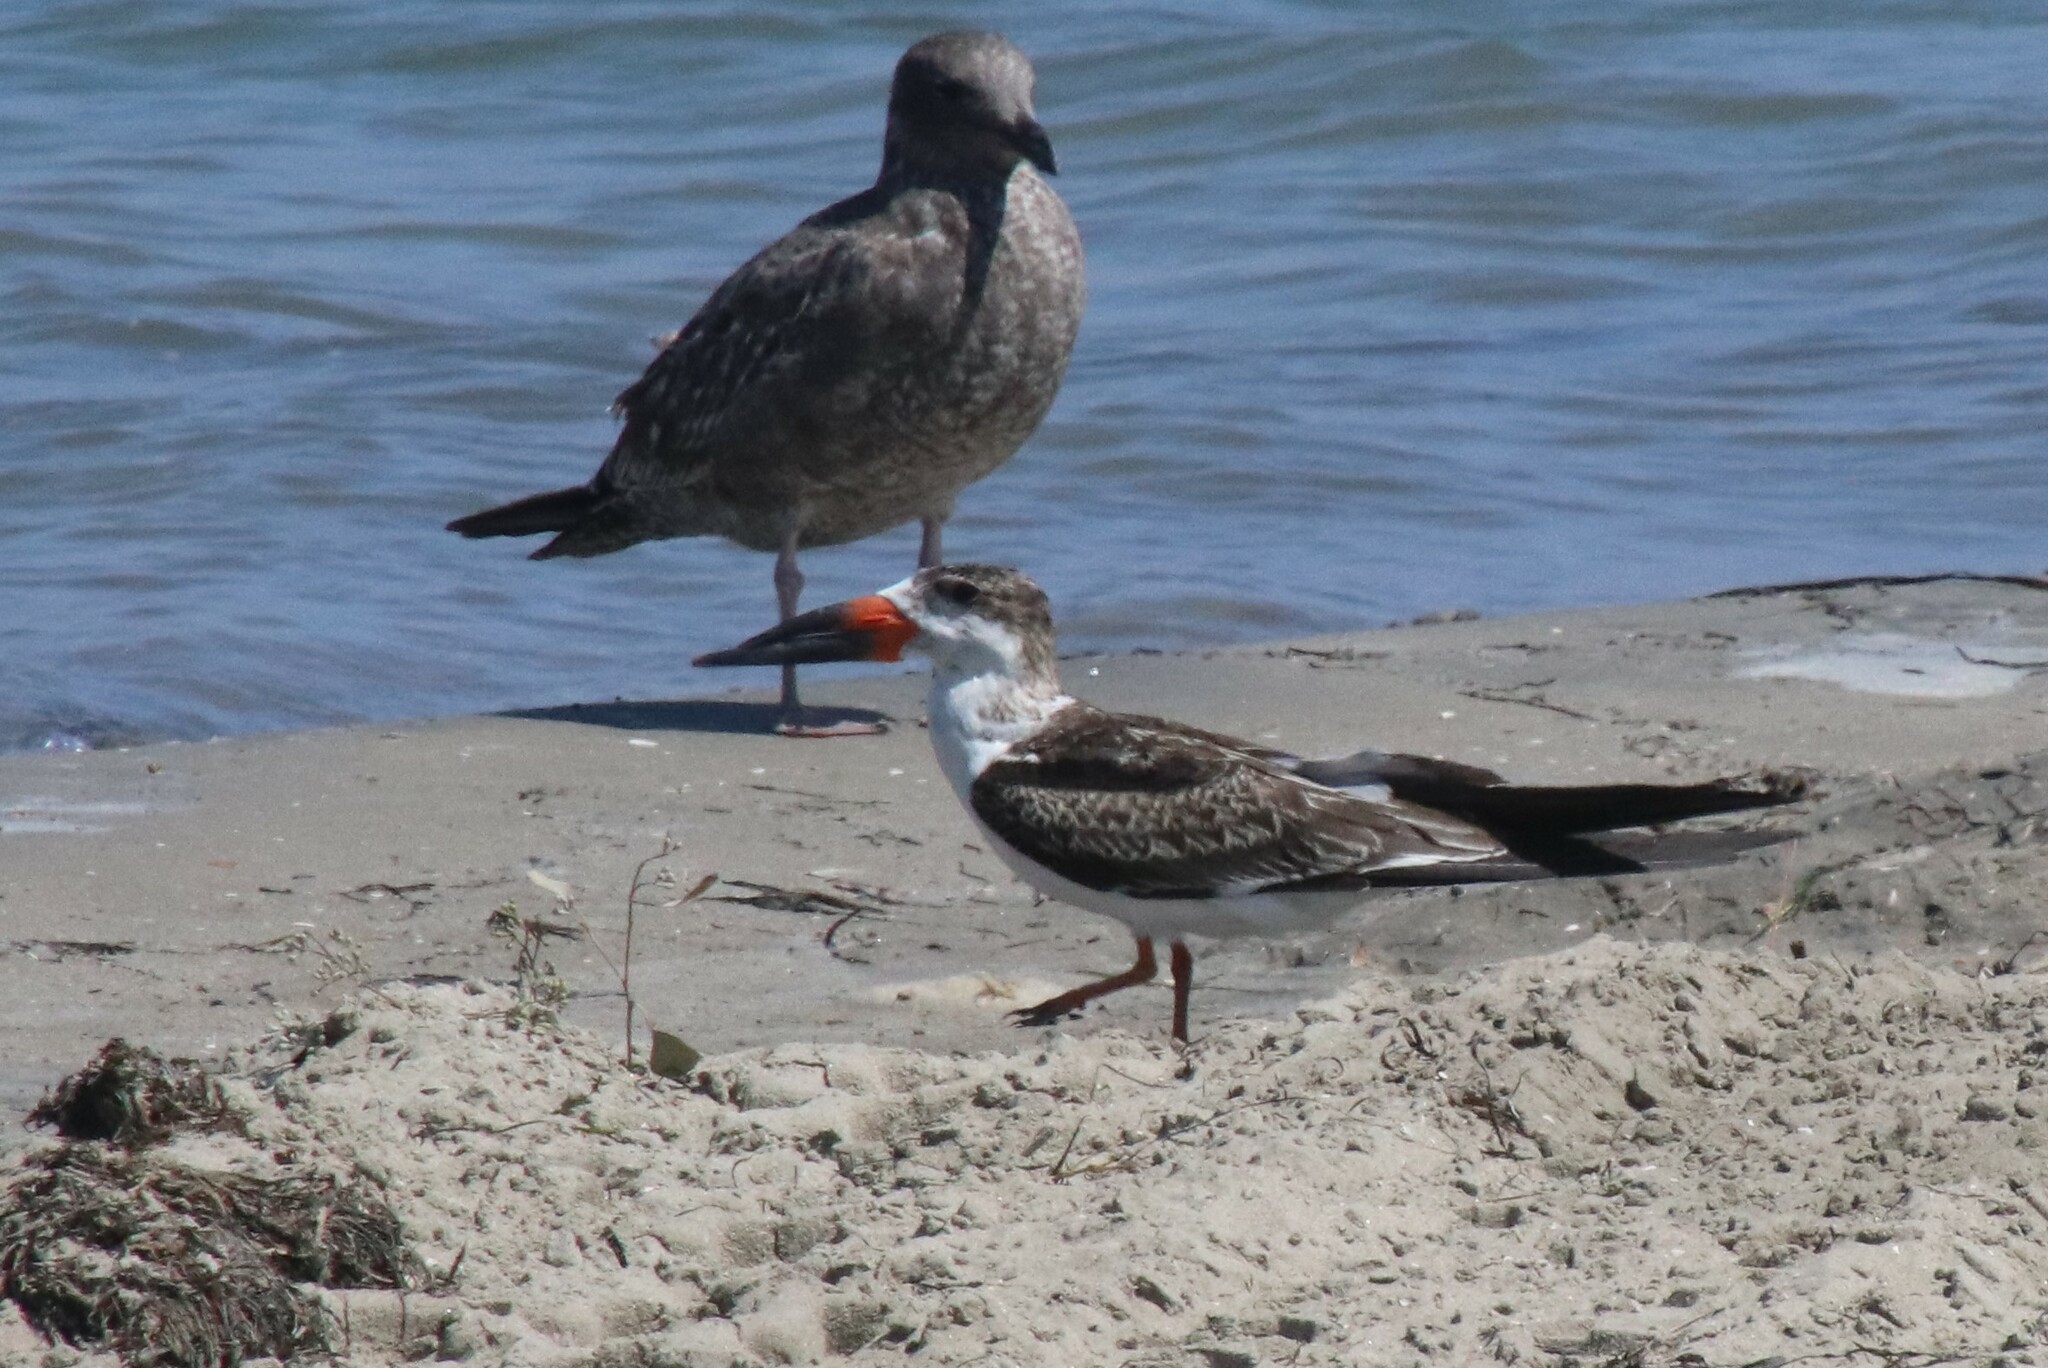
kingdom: Animalia
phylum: Chordata
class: Aves
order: Charadriiformes
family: Laridae
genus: Rynchops
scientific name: Rynchops niger
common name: Black skimmer
